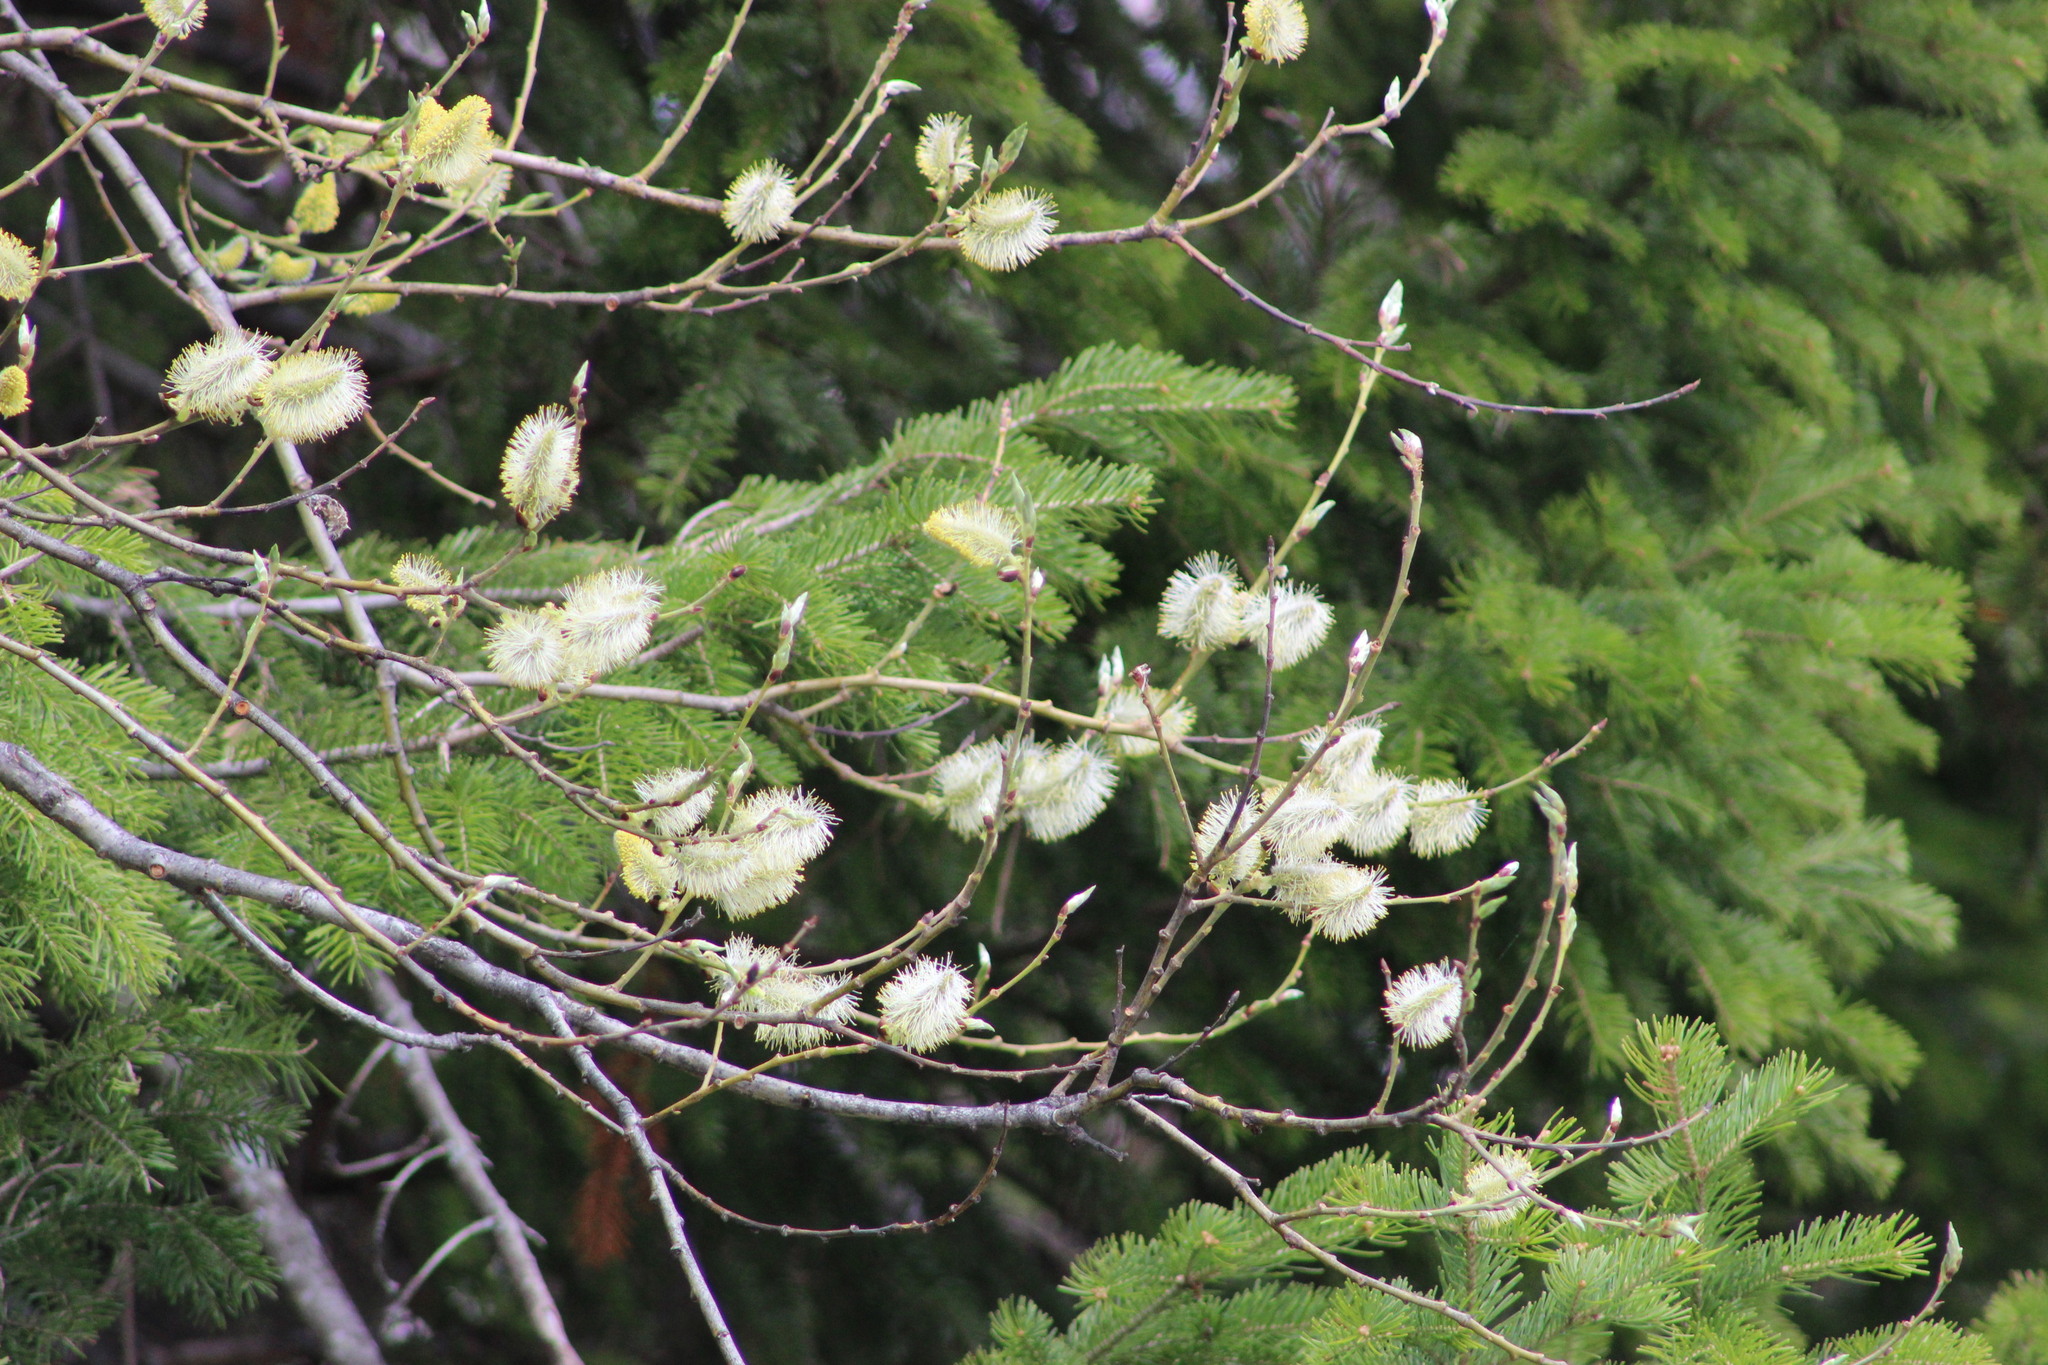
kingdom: Plantae
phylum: Tracheophyta
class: Magnoliopsida
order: Malpighiales
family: Salicaceae
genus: Salix
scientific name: Salix caprea
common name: Goat willow
